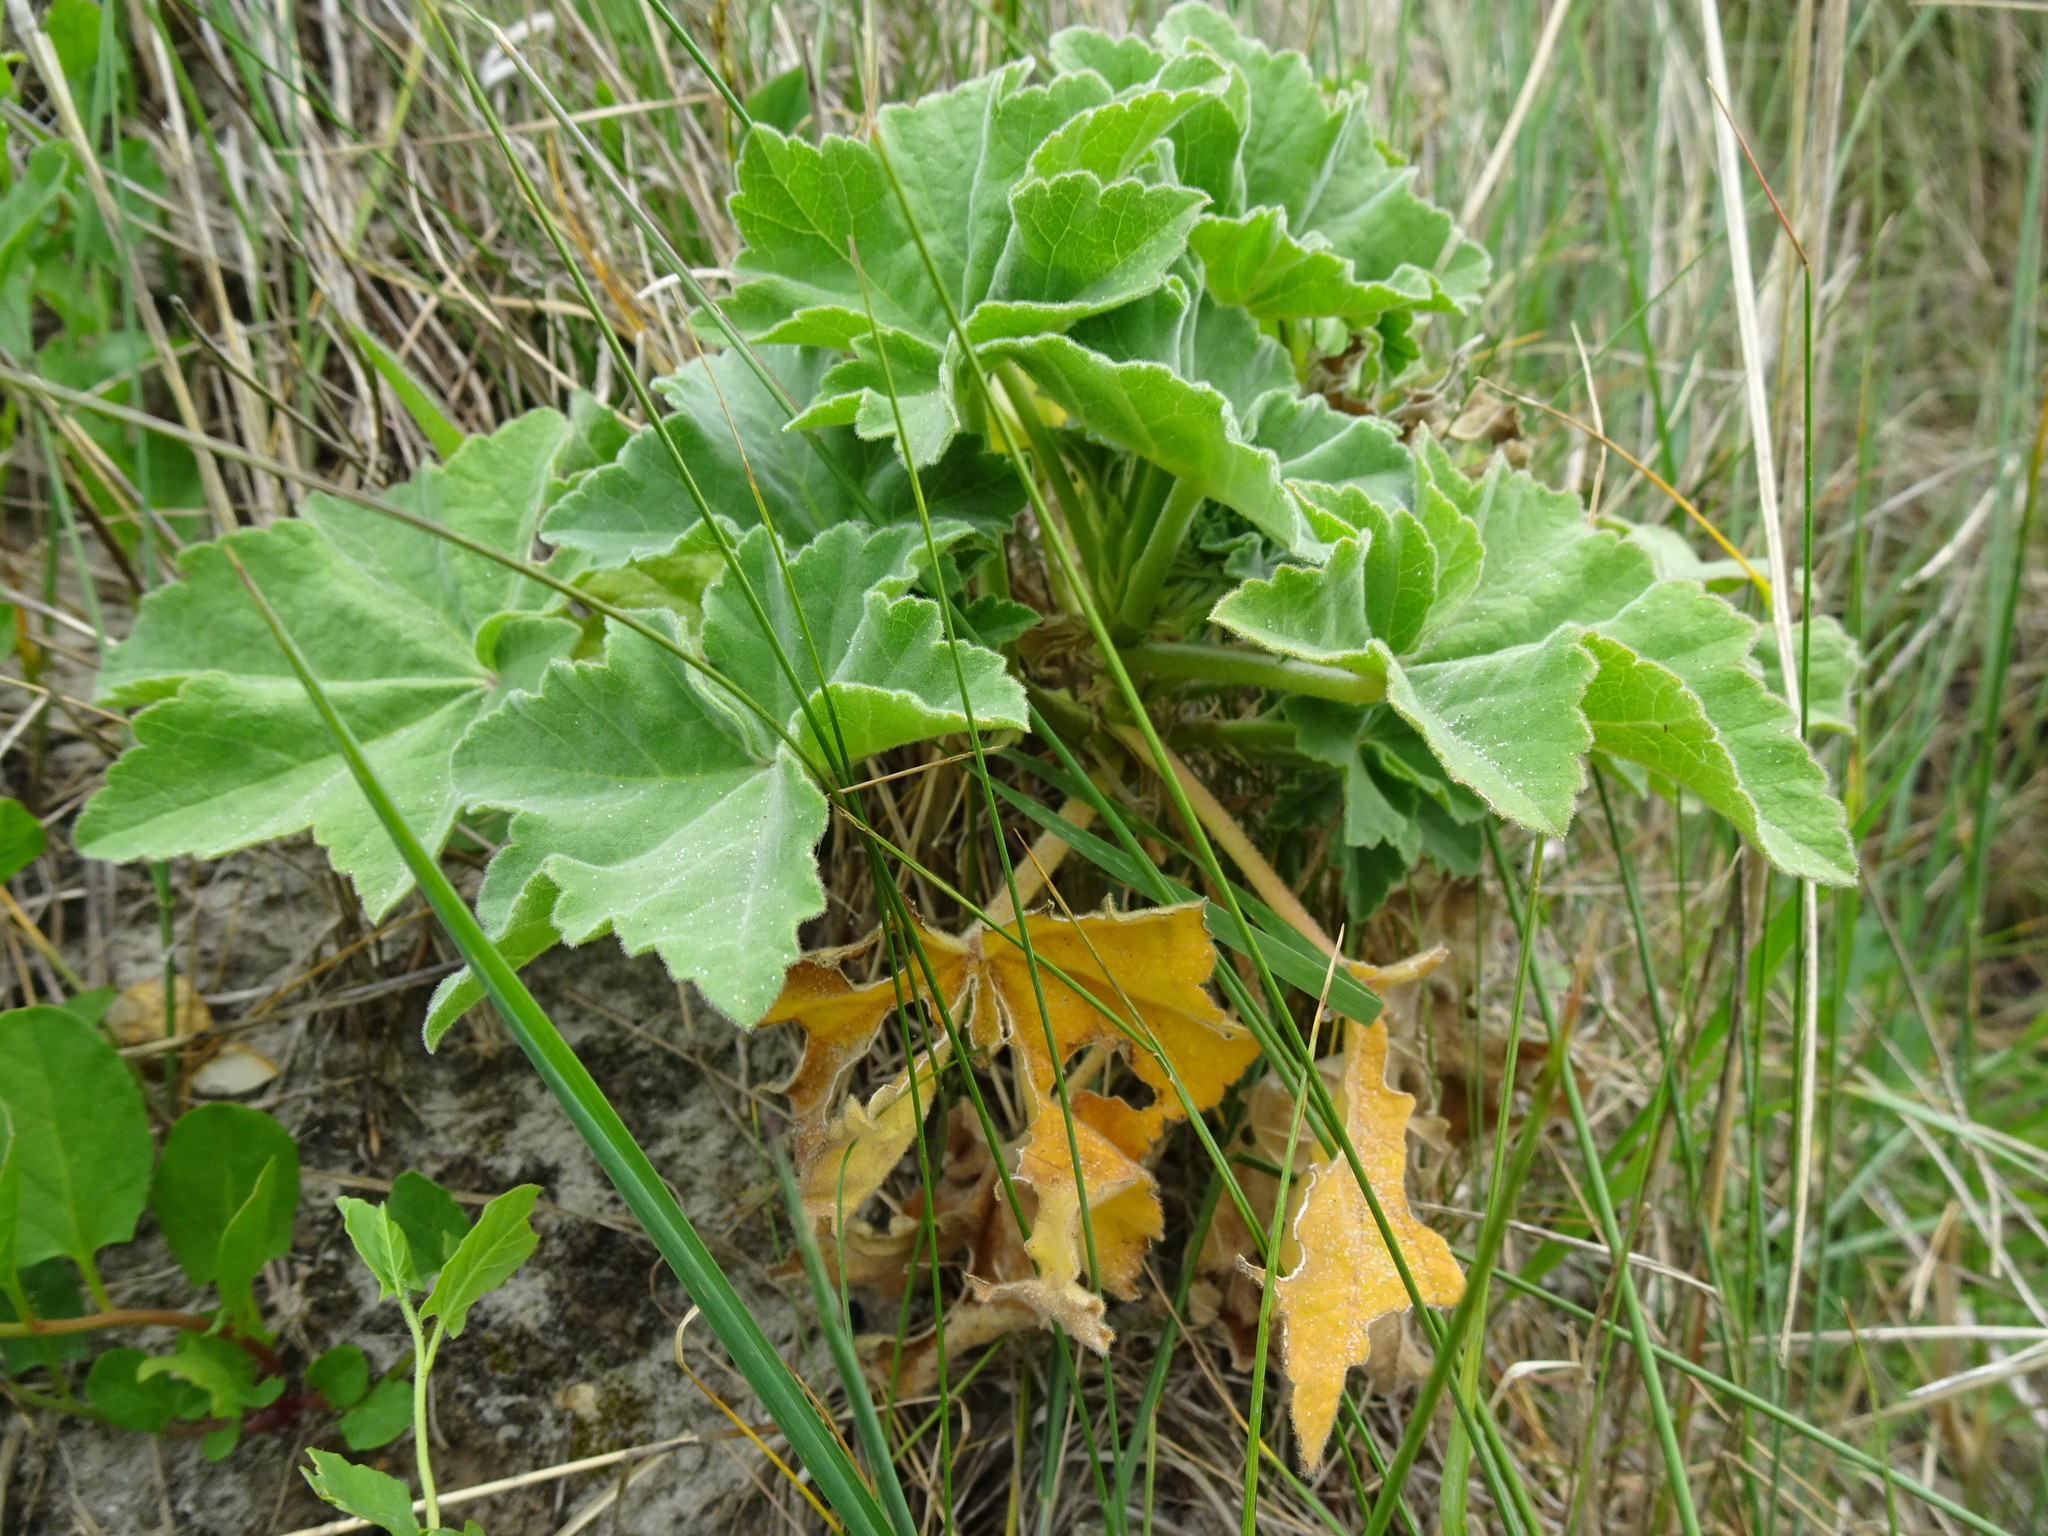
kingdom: Plantae
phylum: Tracheophyta
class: Magnoliopsida
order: Malvales
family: Malvaceae
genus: Malva
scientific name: Malva arborea
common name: Tree mallow
